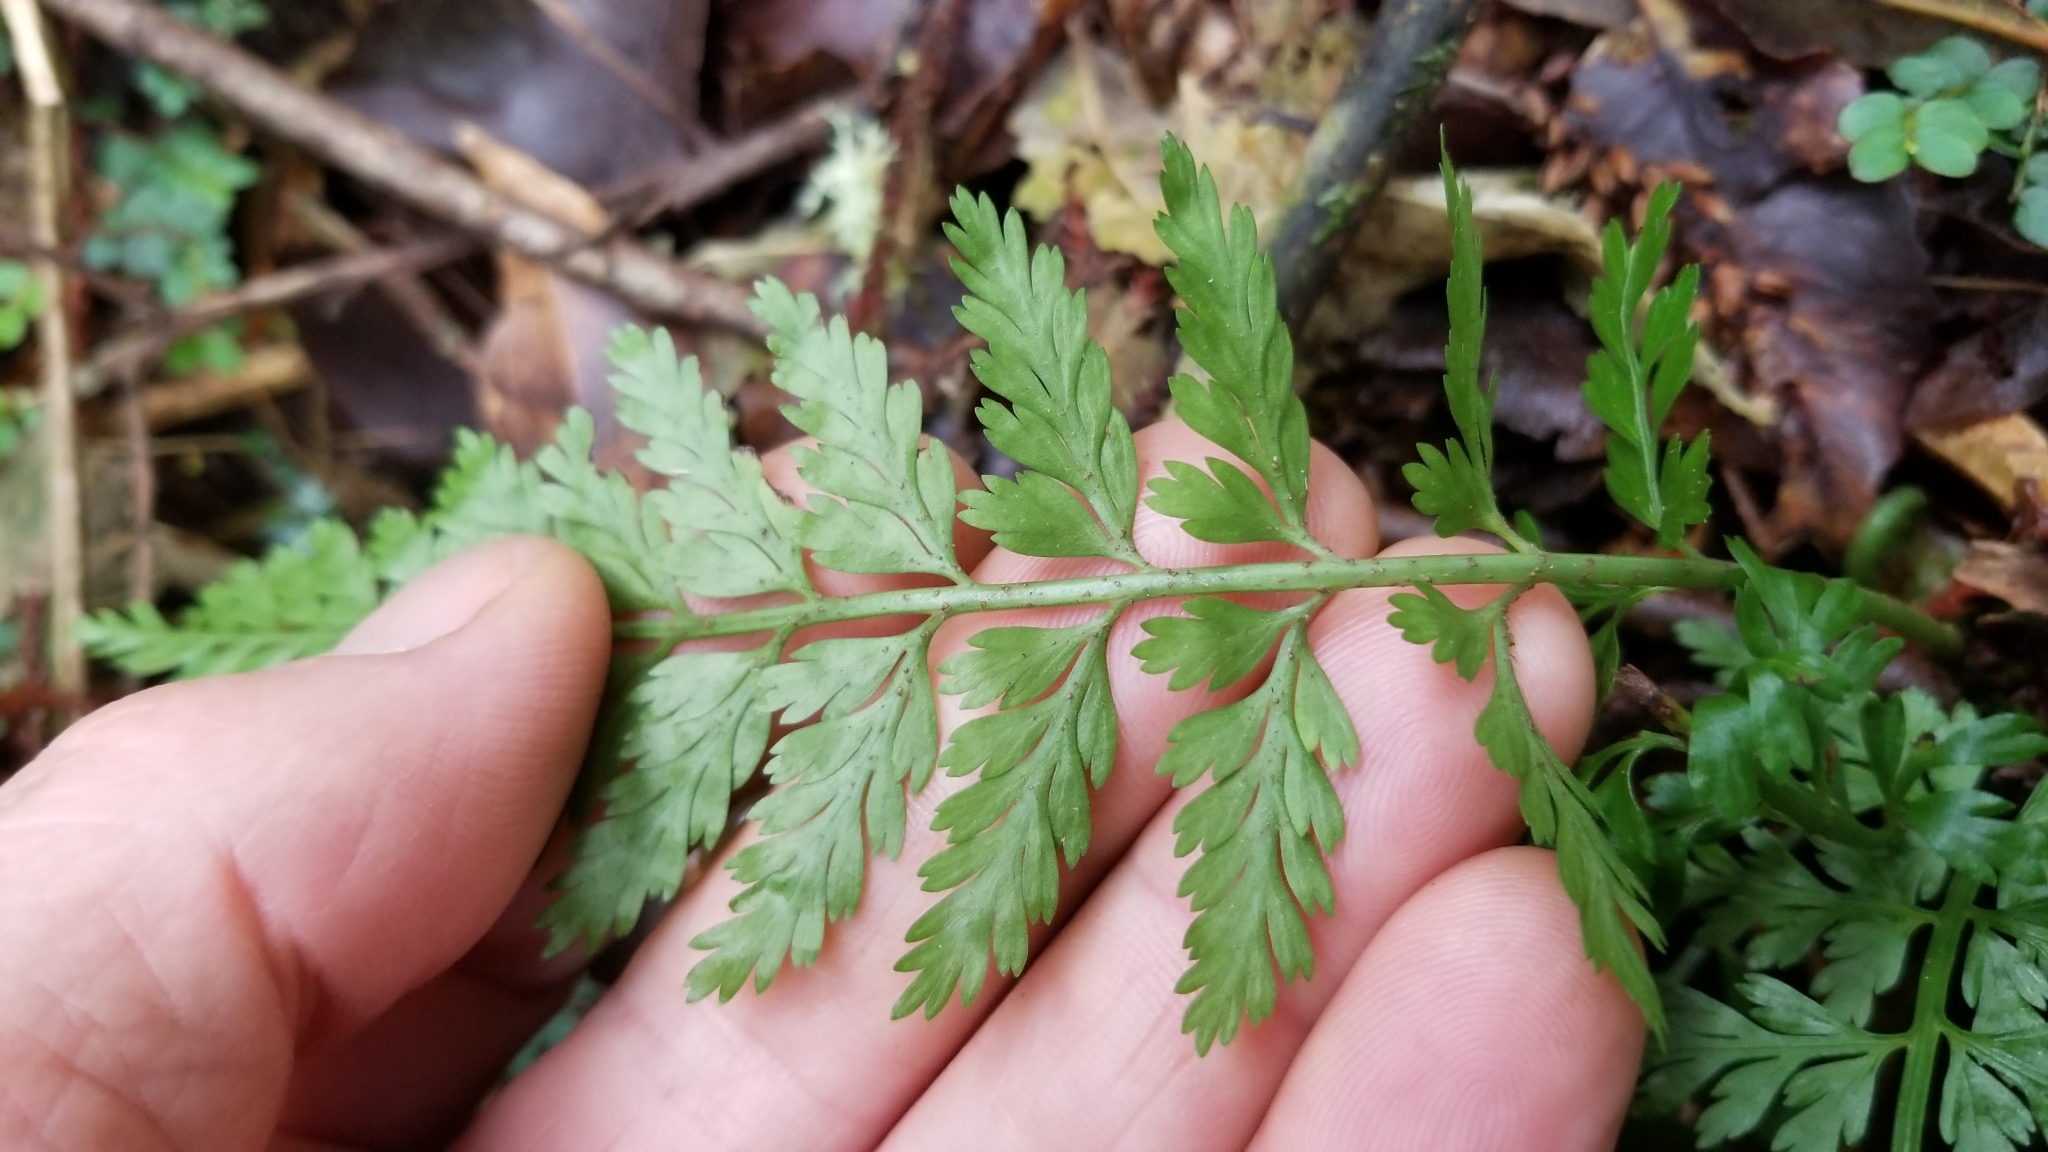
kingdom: Plantae
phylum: Tracheophyta
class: Polypodiopsida
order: Polypodiales
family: Aspleniaceae
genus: Asplenium
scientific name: Asplenium bulbiferum
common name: Mother fern
